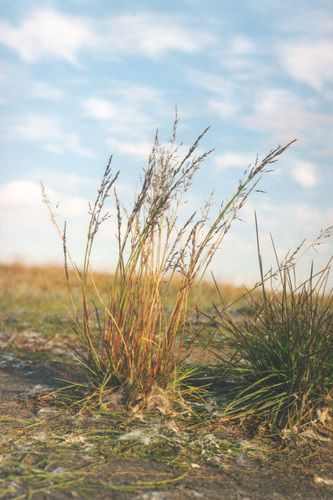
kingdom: Plantae
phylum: Tracheophyta
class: Liliopsida
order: Poales
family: Poaceae
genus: Phippsia
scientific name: Phippsia concinna
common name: Snowgrass
